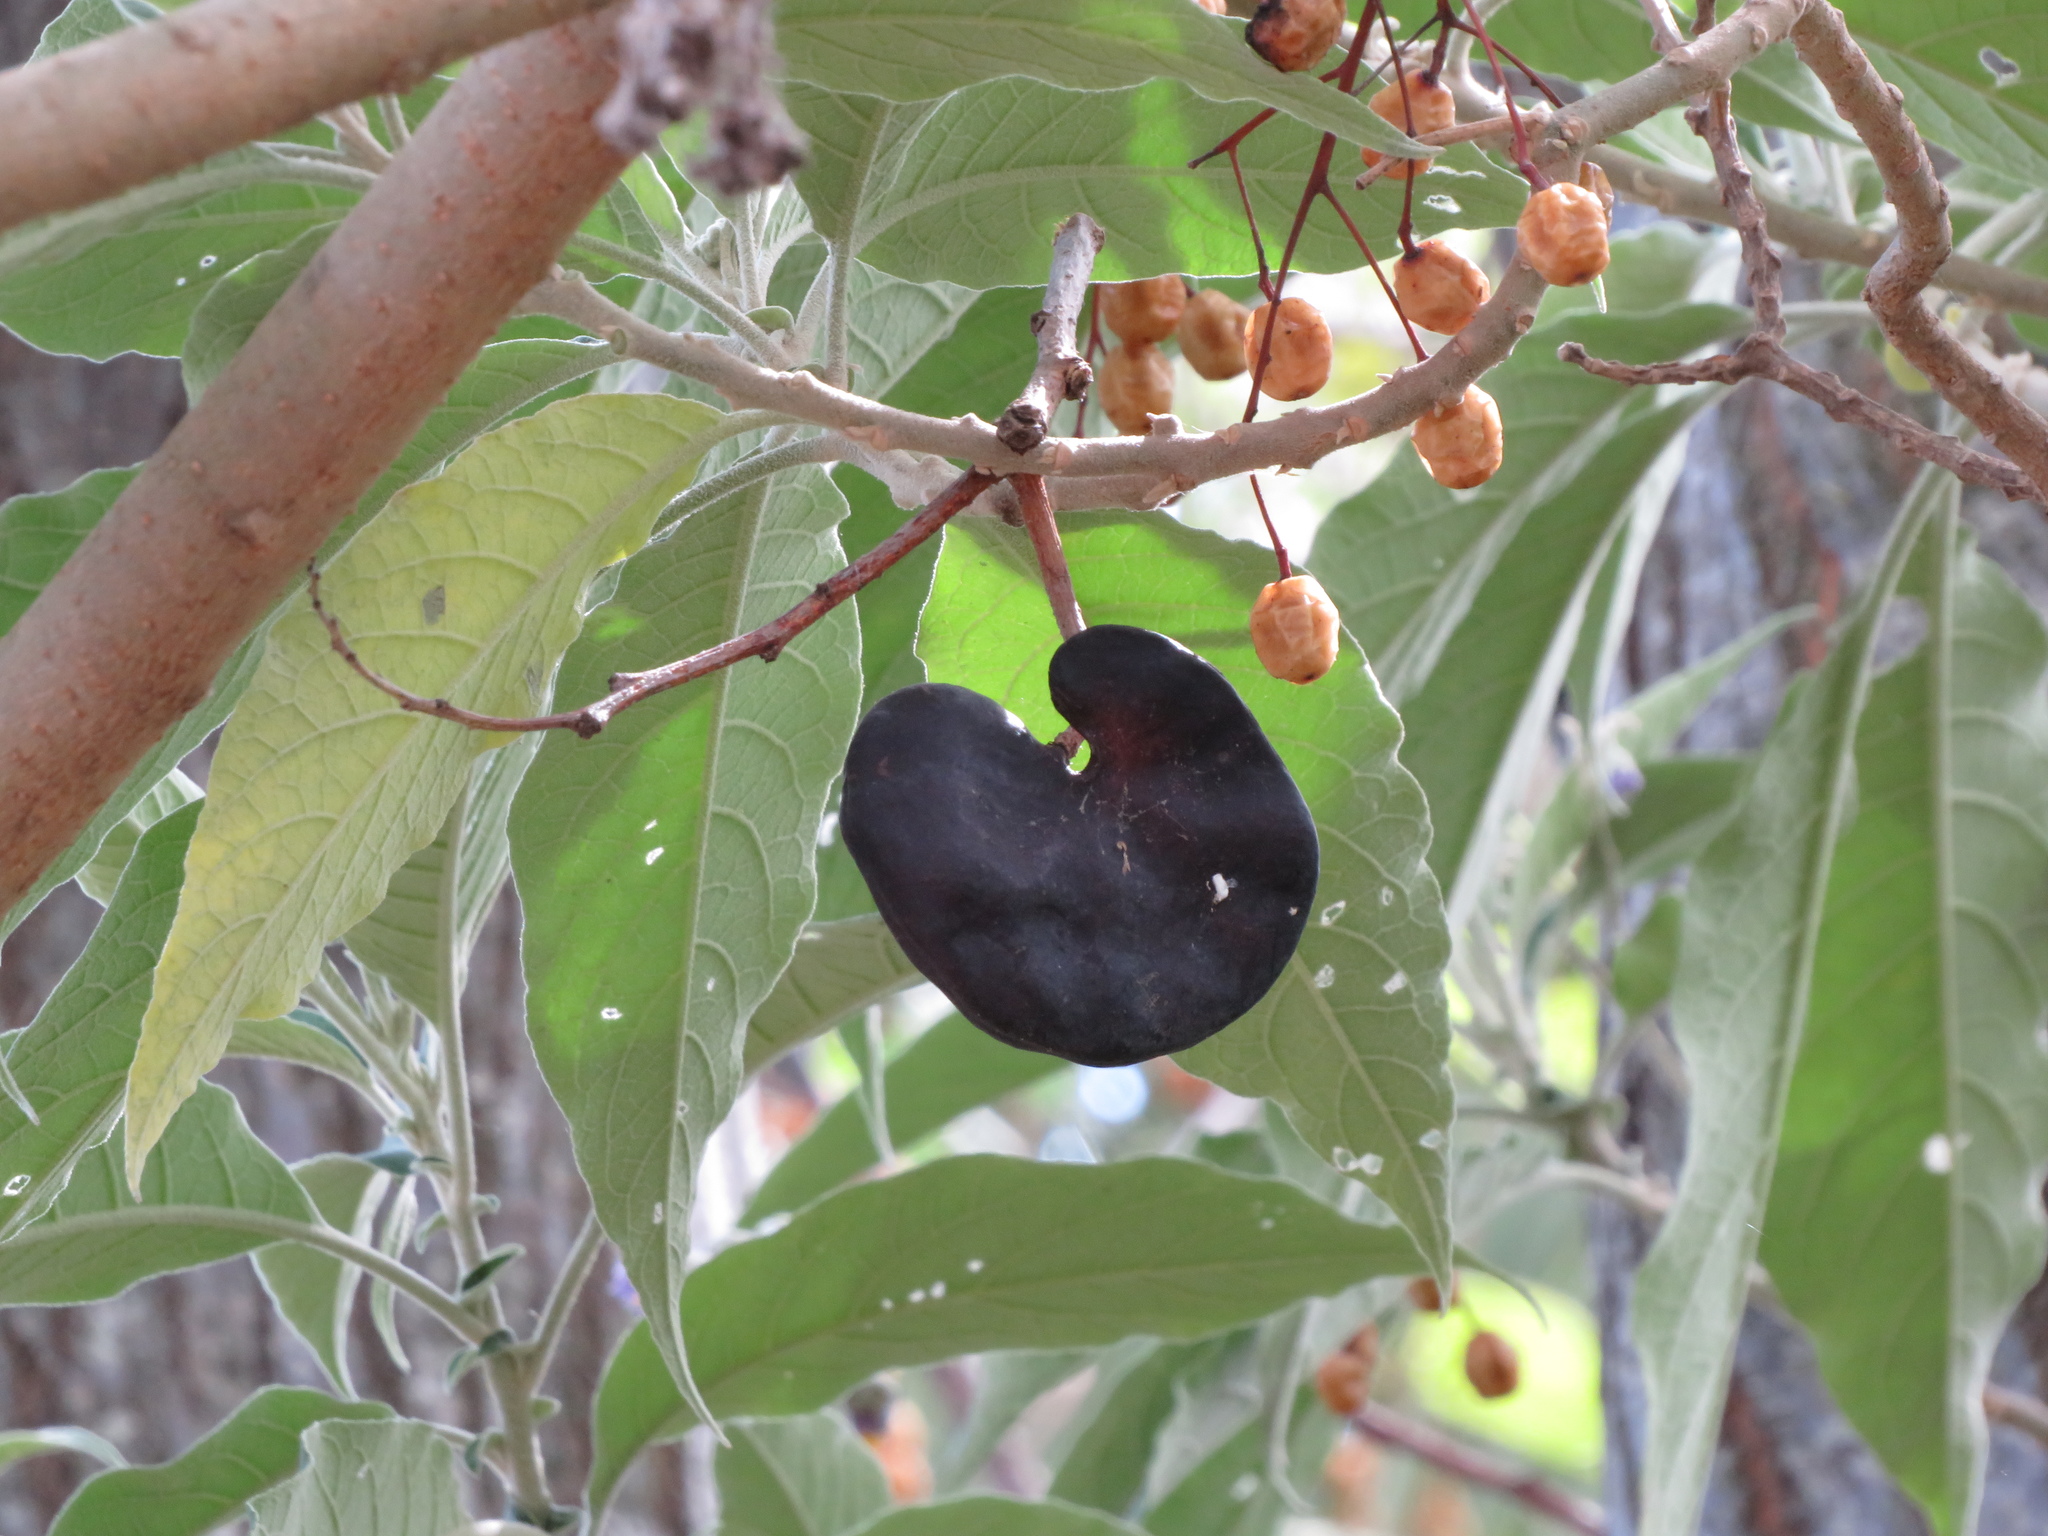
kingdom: Plantae
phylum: Tracheophyta
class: Magnoliopsida
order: Fabales
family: Fabaceae
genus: Enterolobium
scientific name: Enterolobium contortisiliquum
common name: Pacara earpod tree
